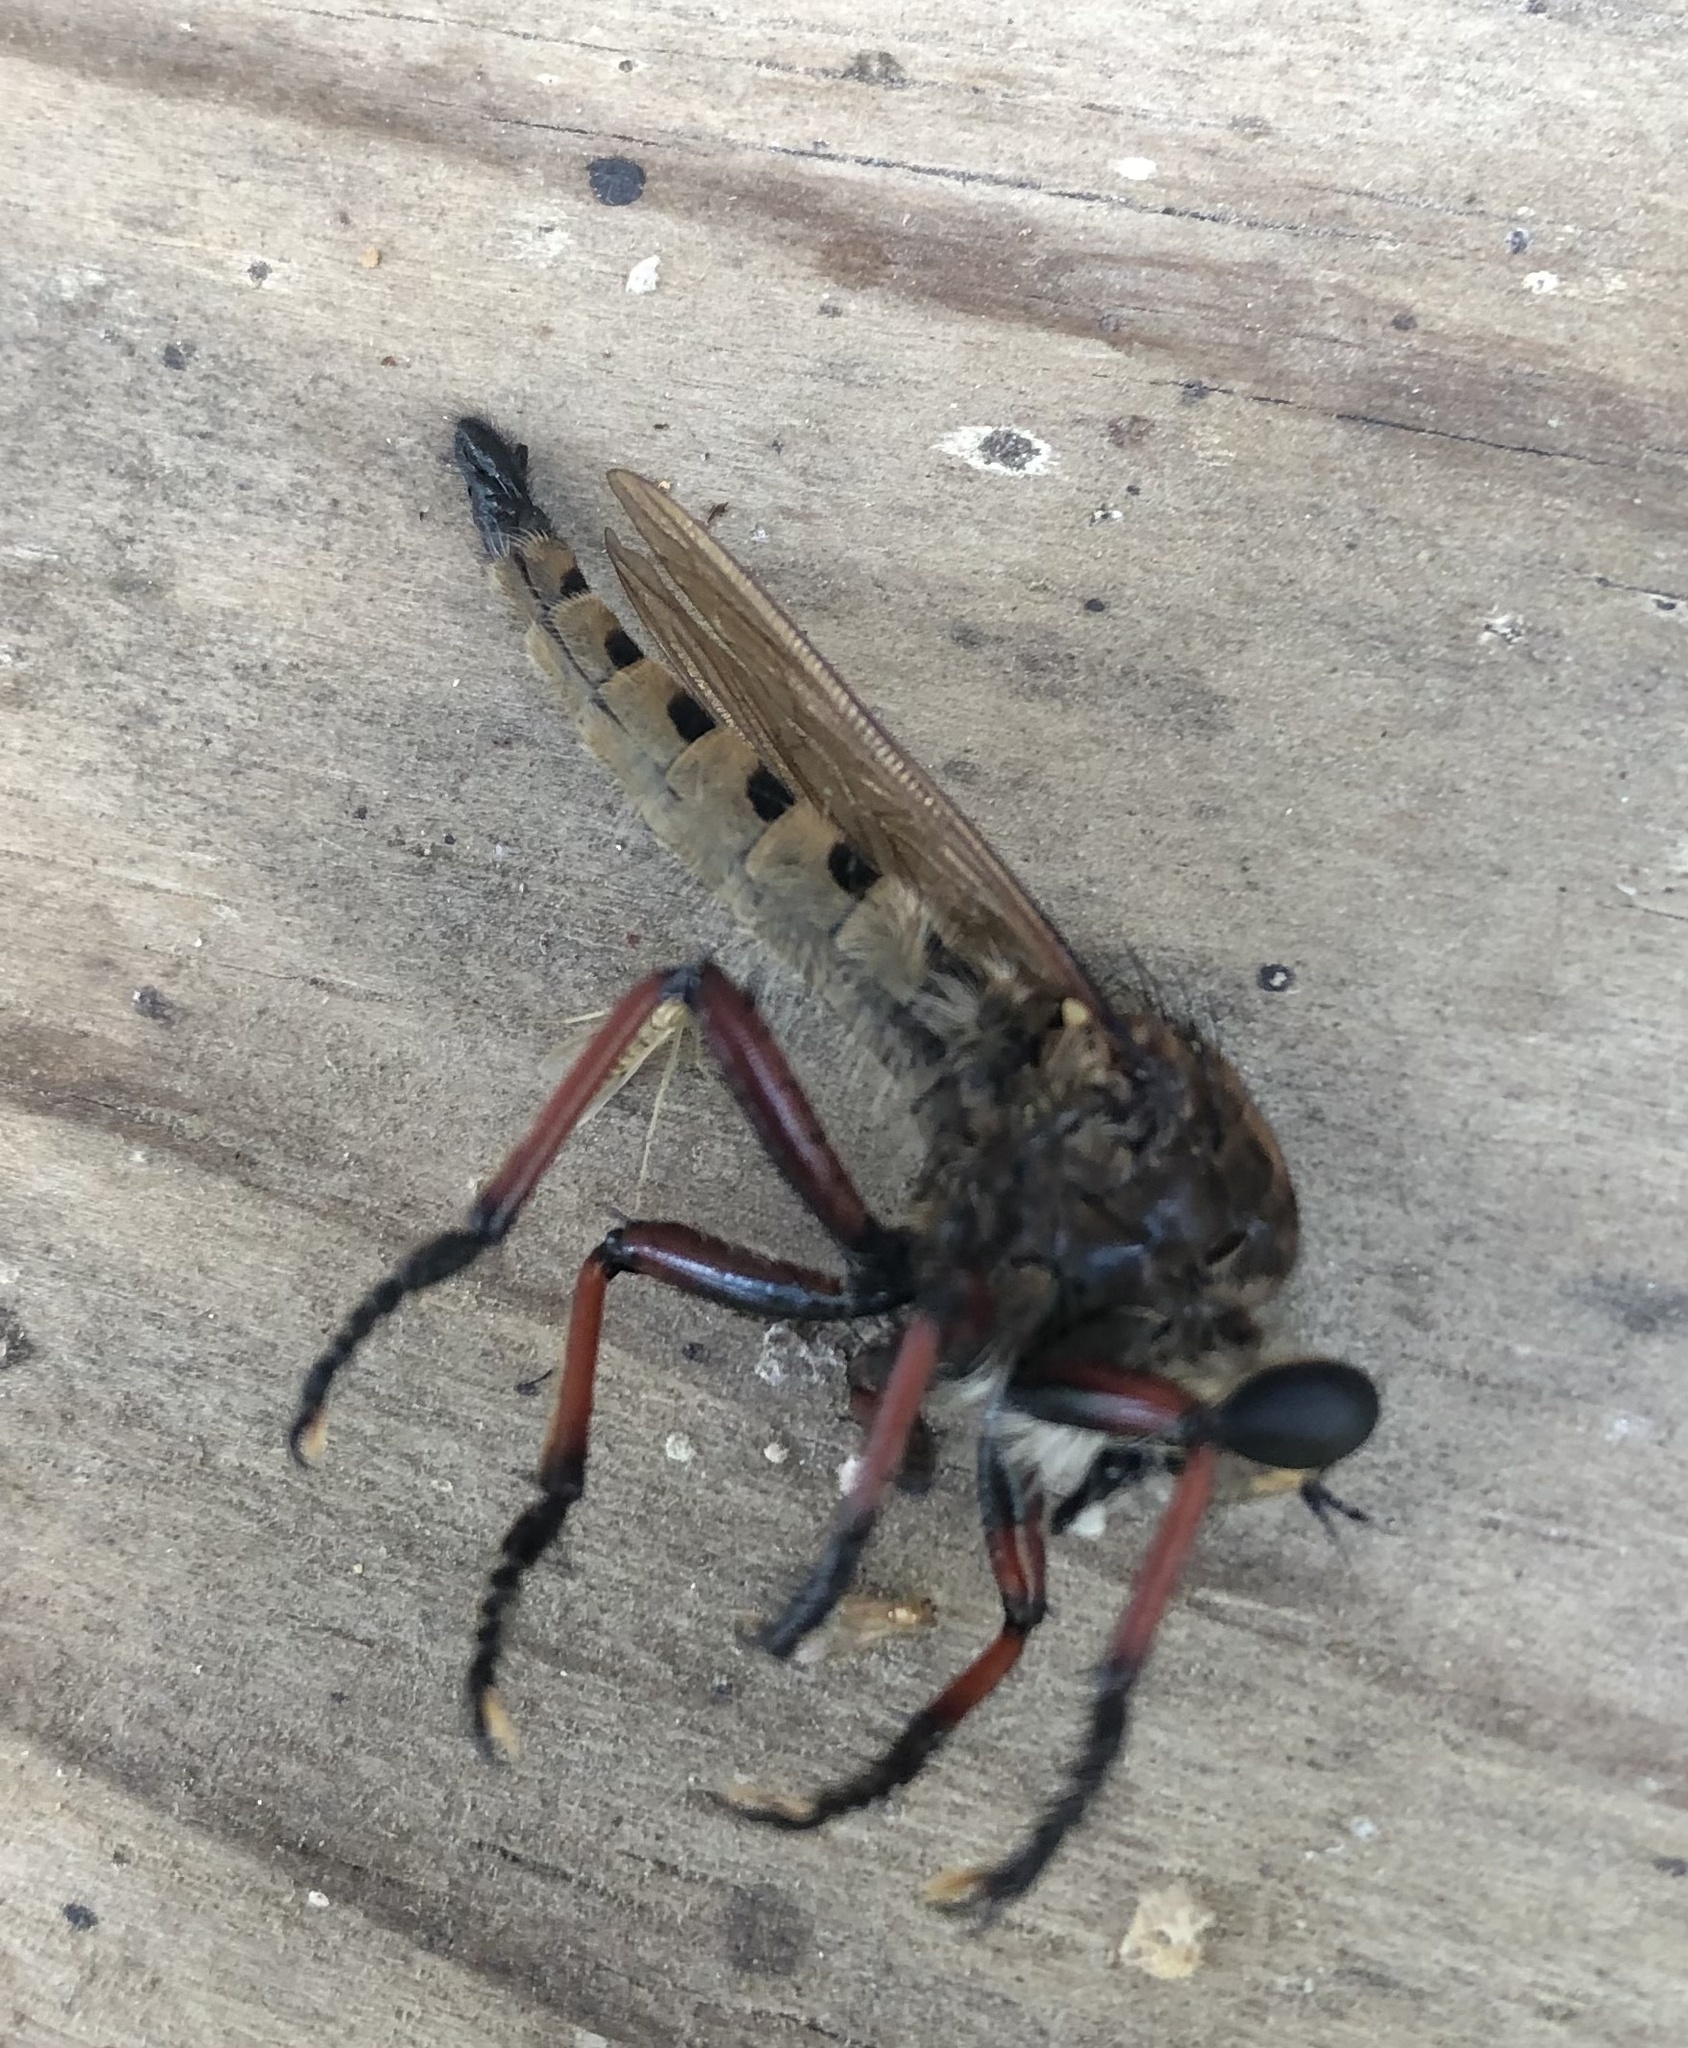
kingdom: Animalia
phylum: Arthropoda
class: Insecta
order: Diptera
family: Asilidae
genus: Promachus
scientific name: Promachus hinei
